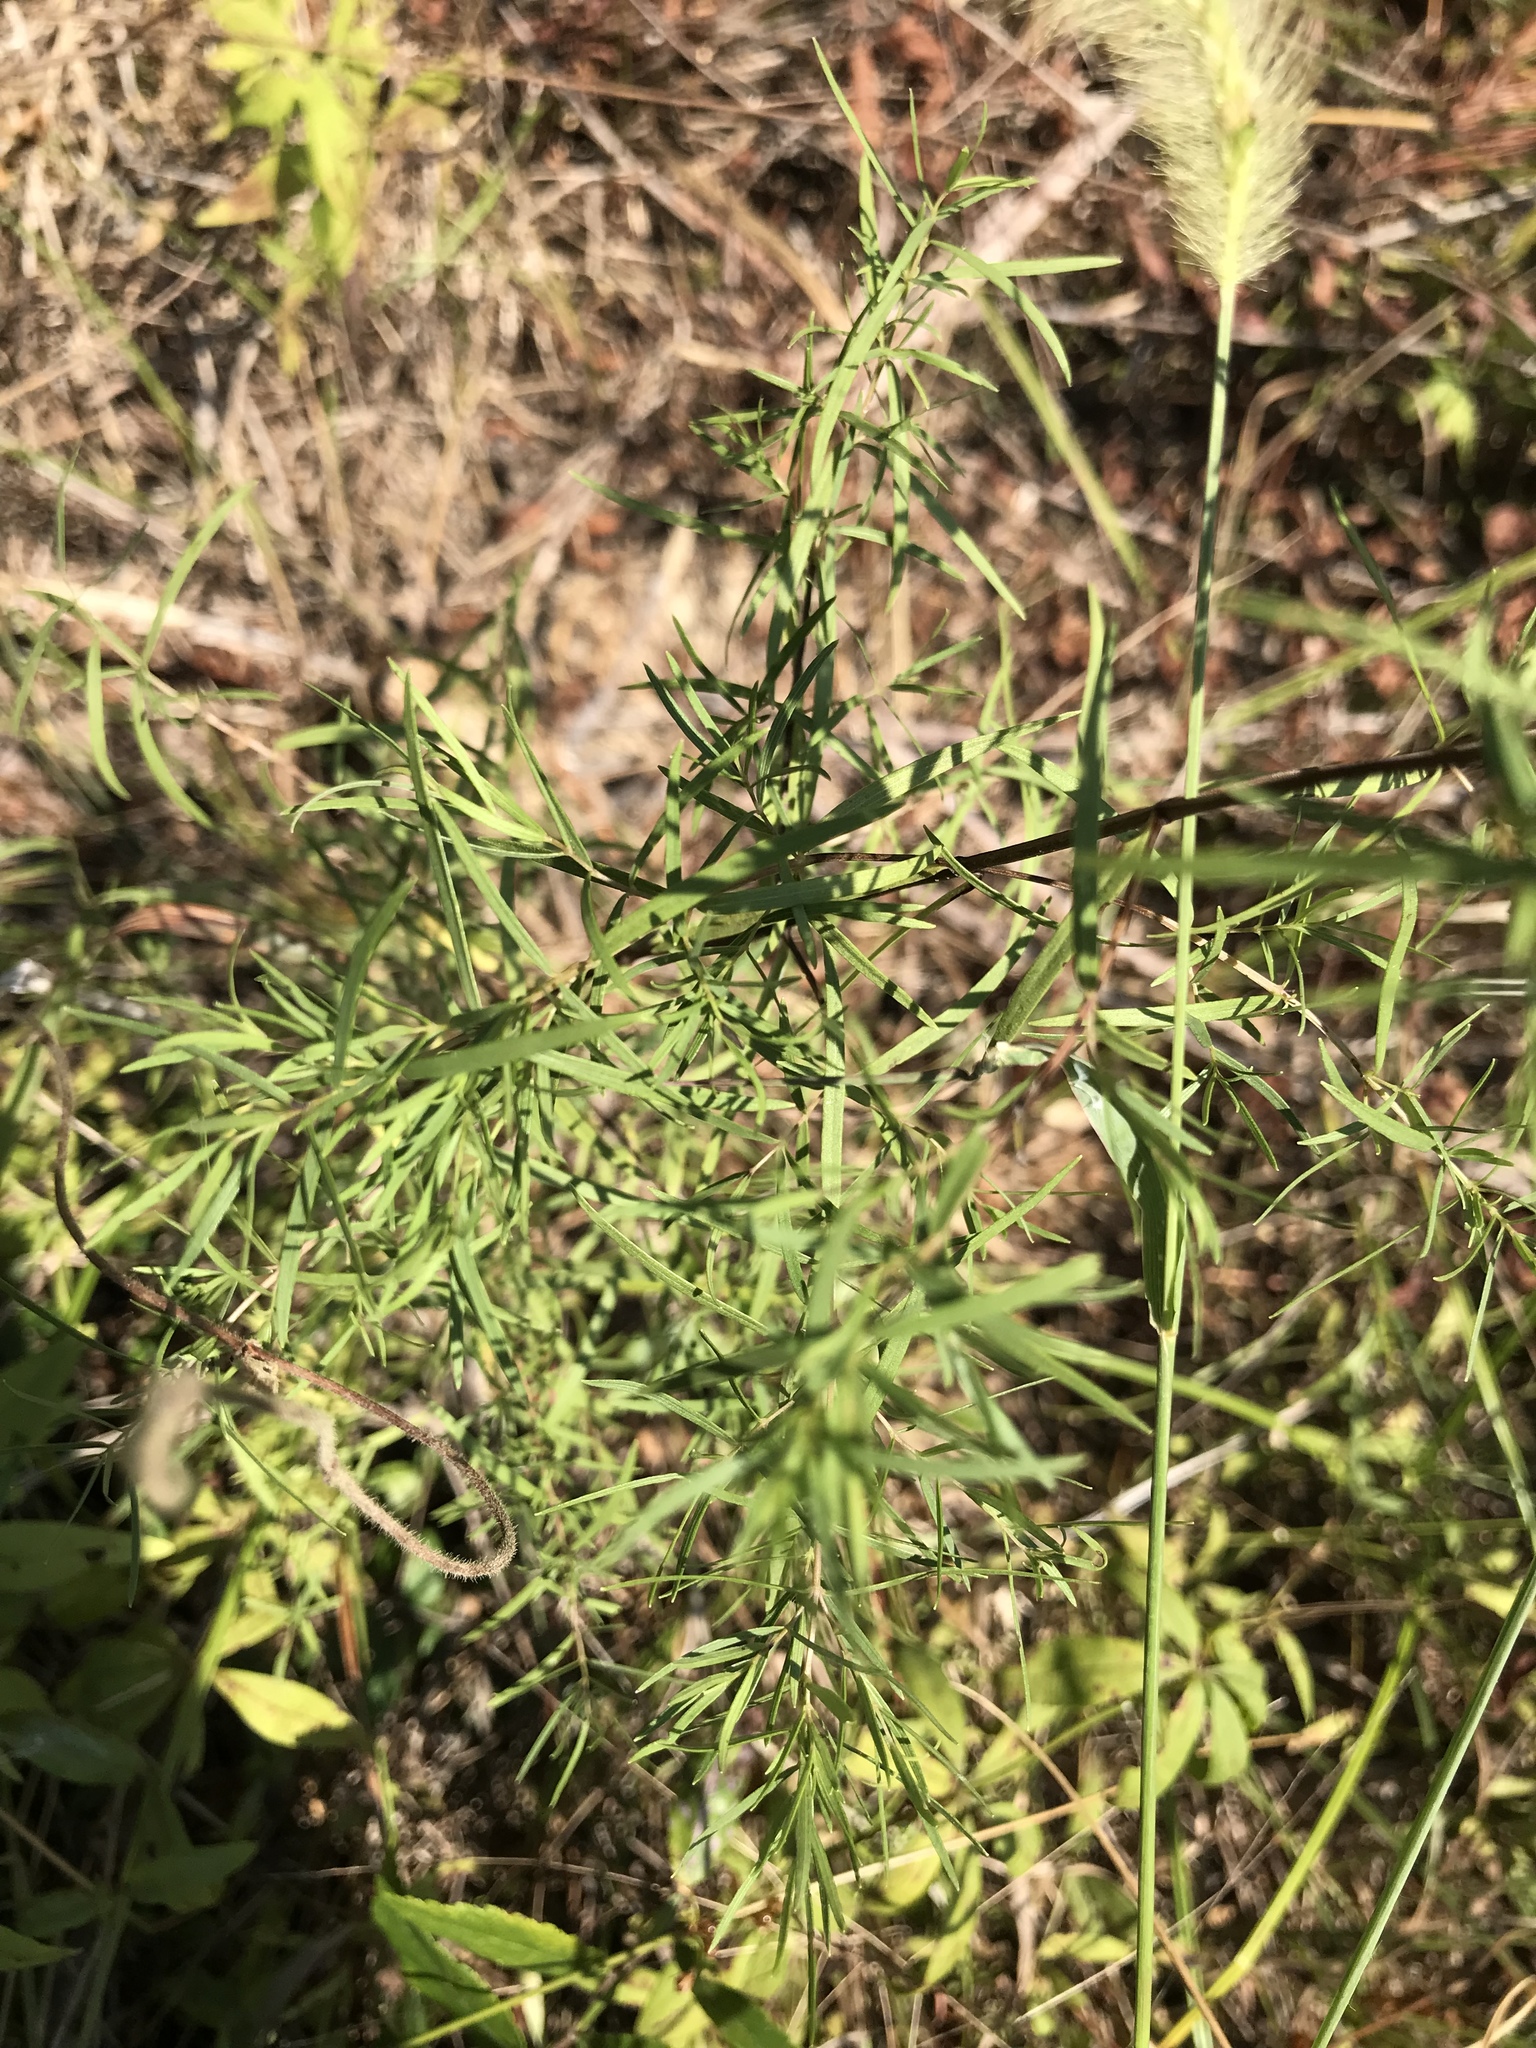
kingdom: Plantae
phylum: Tracheophyta
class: Magnoliopsida
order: Lamiales
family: Lamiaceae
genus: Pycnanthemum
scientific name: Pycnanthemum tenuifolium
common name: Narrow-leaf mountain-mint
